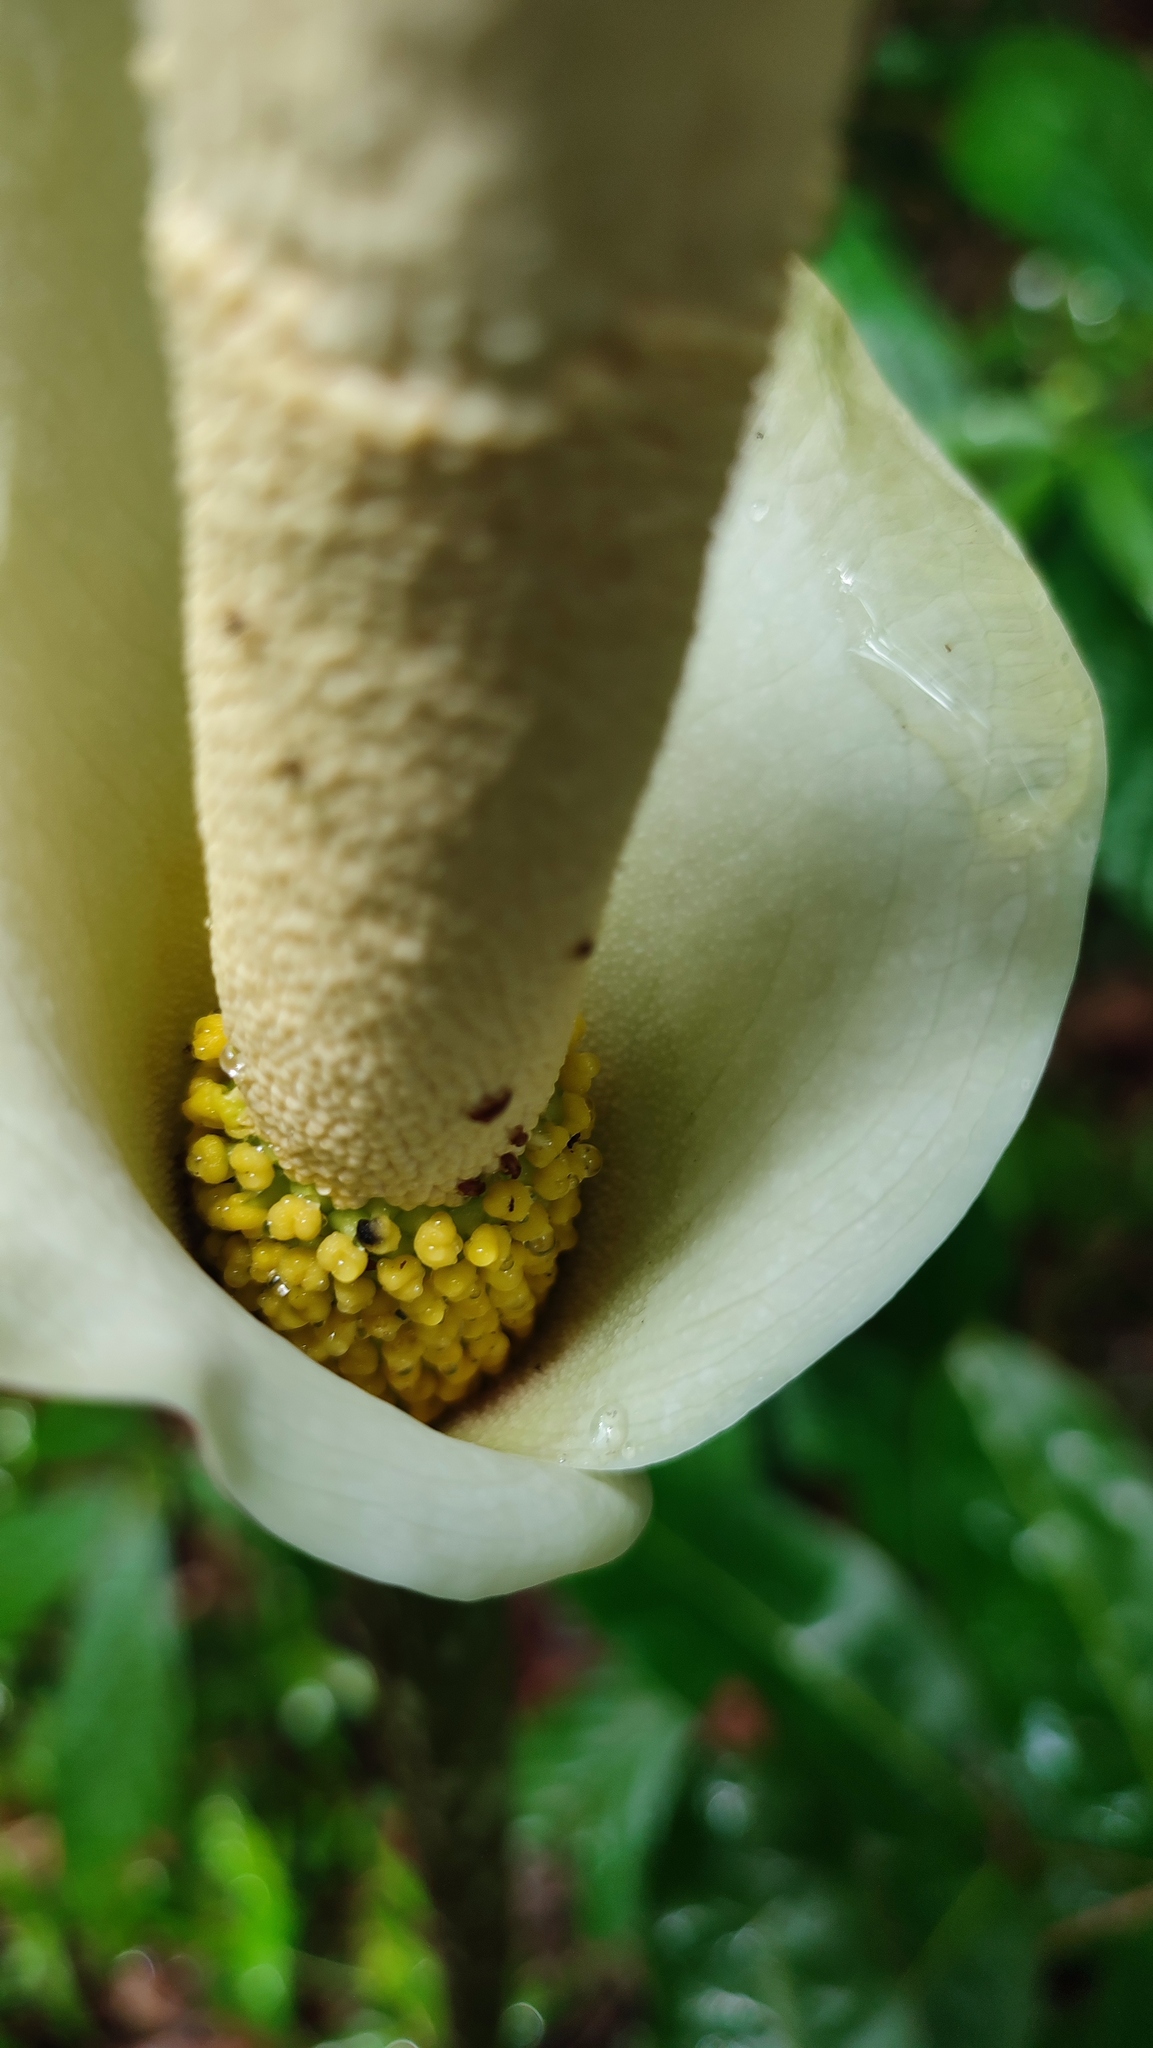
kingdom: Plantae
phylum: Tracheophyta
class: Liliopsida
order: Alismatales
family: Araceae
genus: Amorphophallus
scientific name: Amorphophallus variabilis
